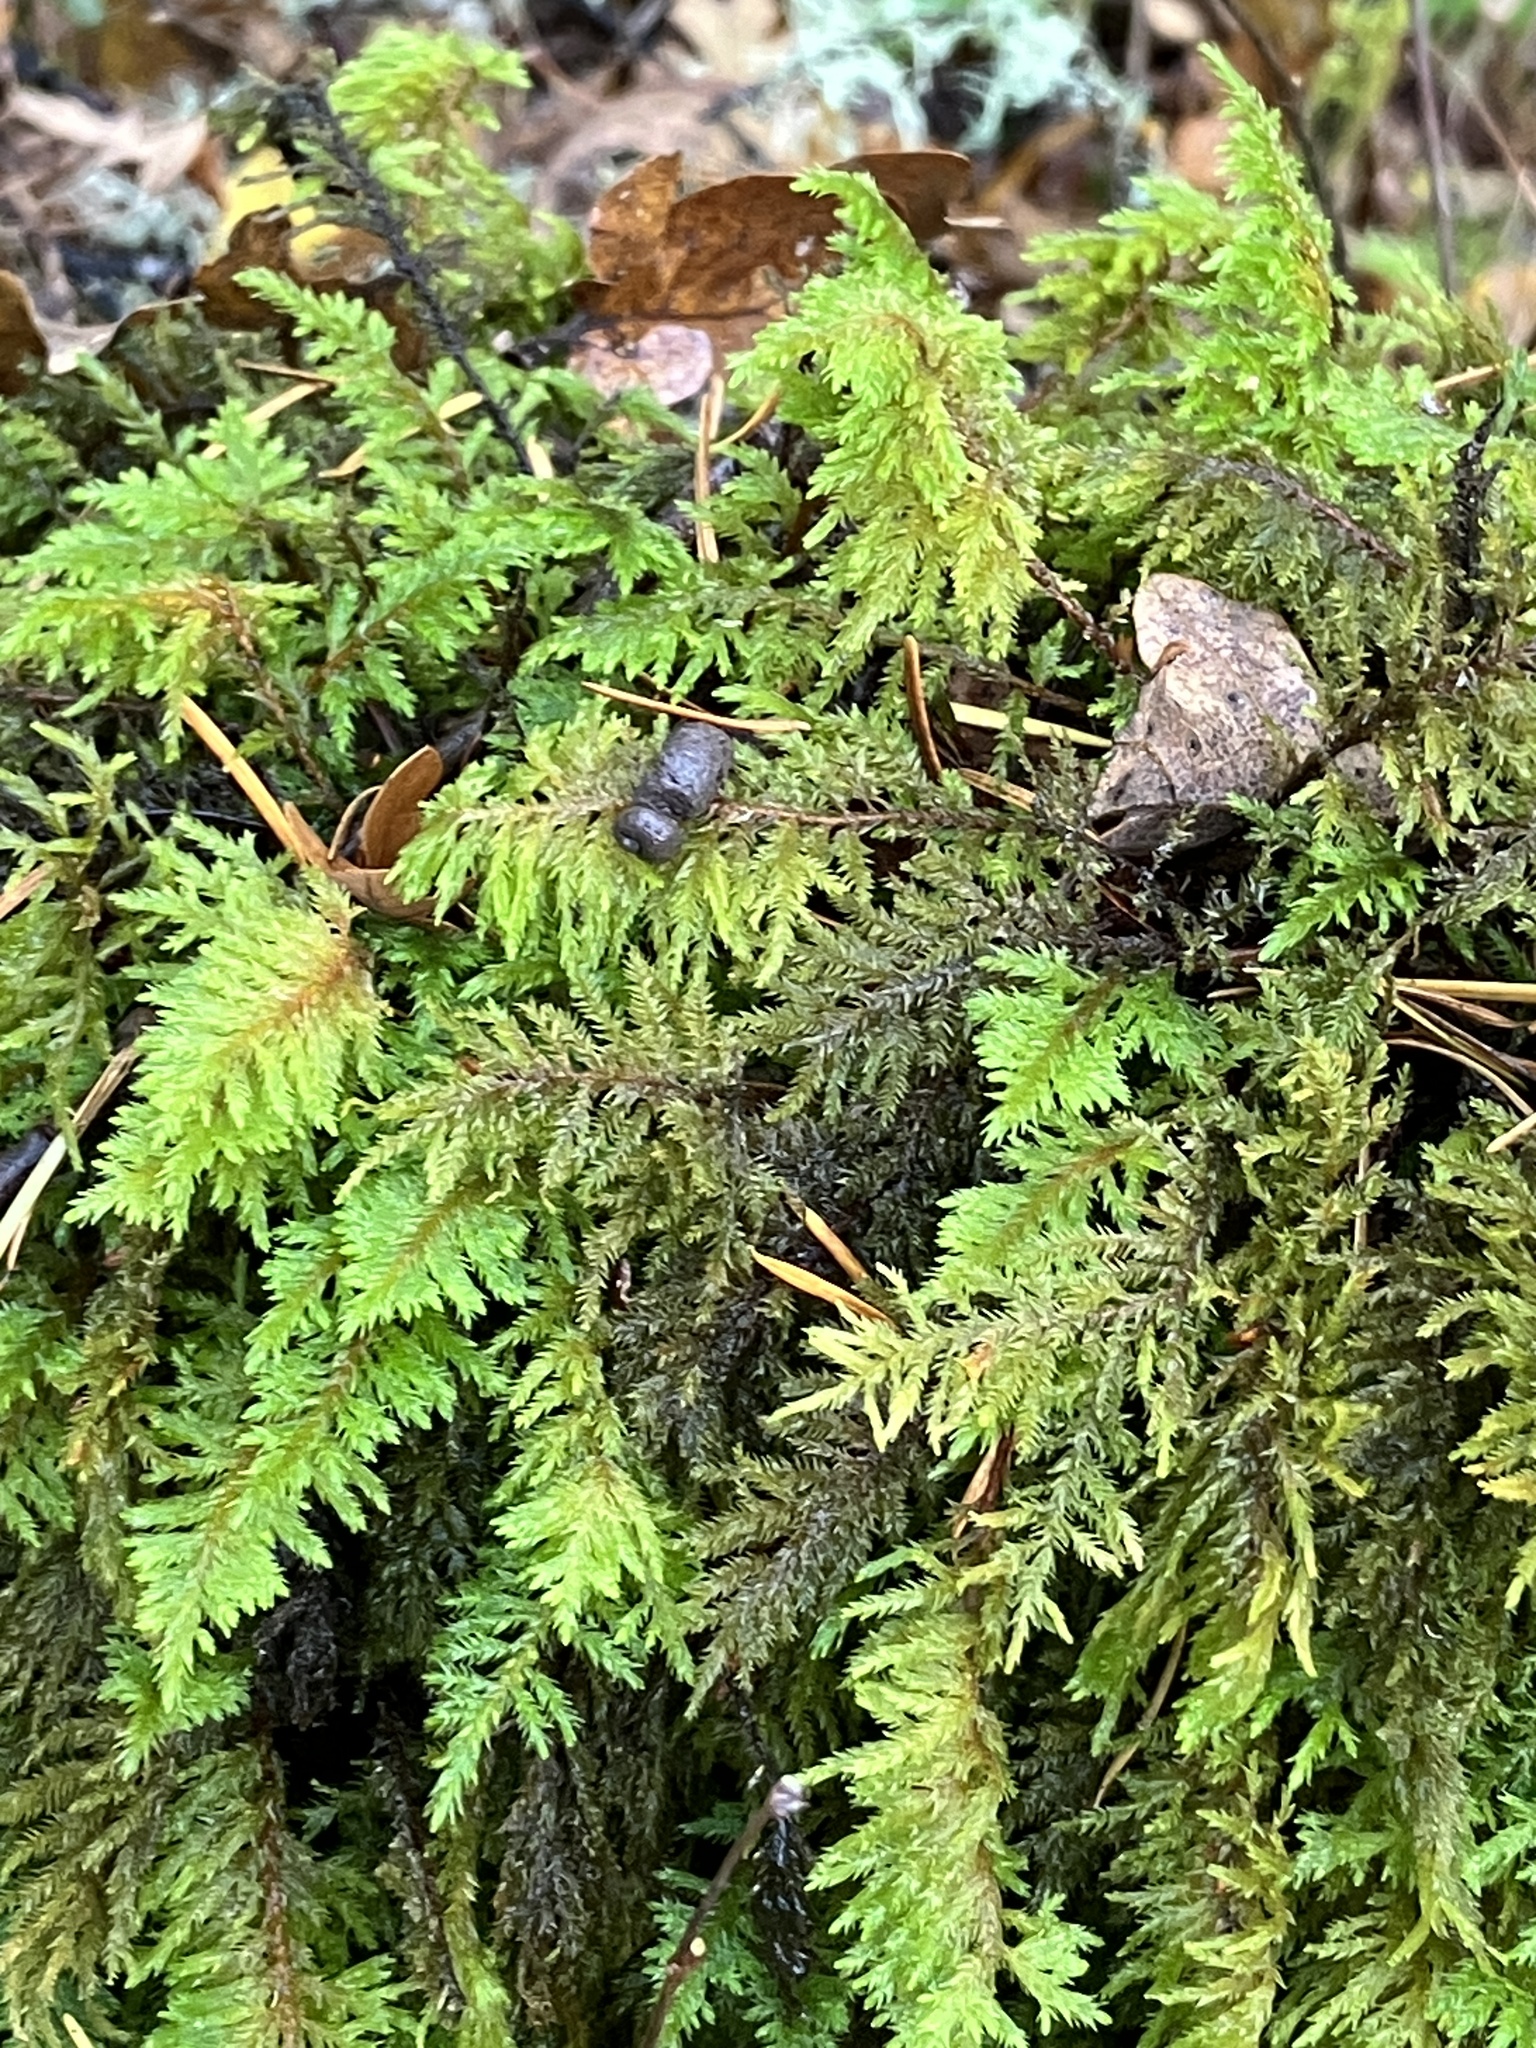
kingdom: Plantae
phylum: Bryophyta
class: Bryopsida
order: Hypnales
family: Cryphaeaceae
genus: Dendroalsia
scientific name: Dendroalsia abietina
